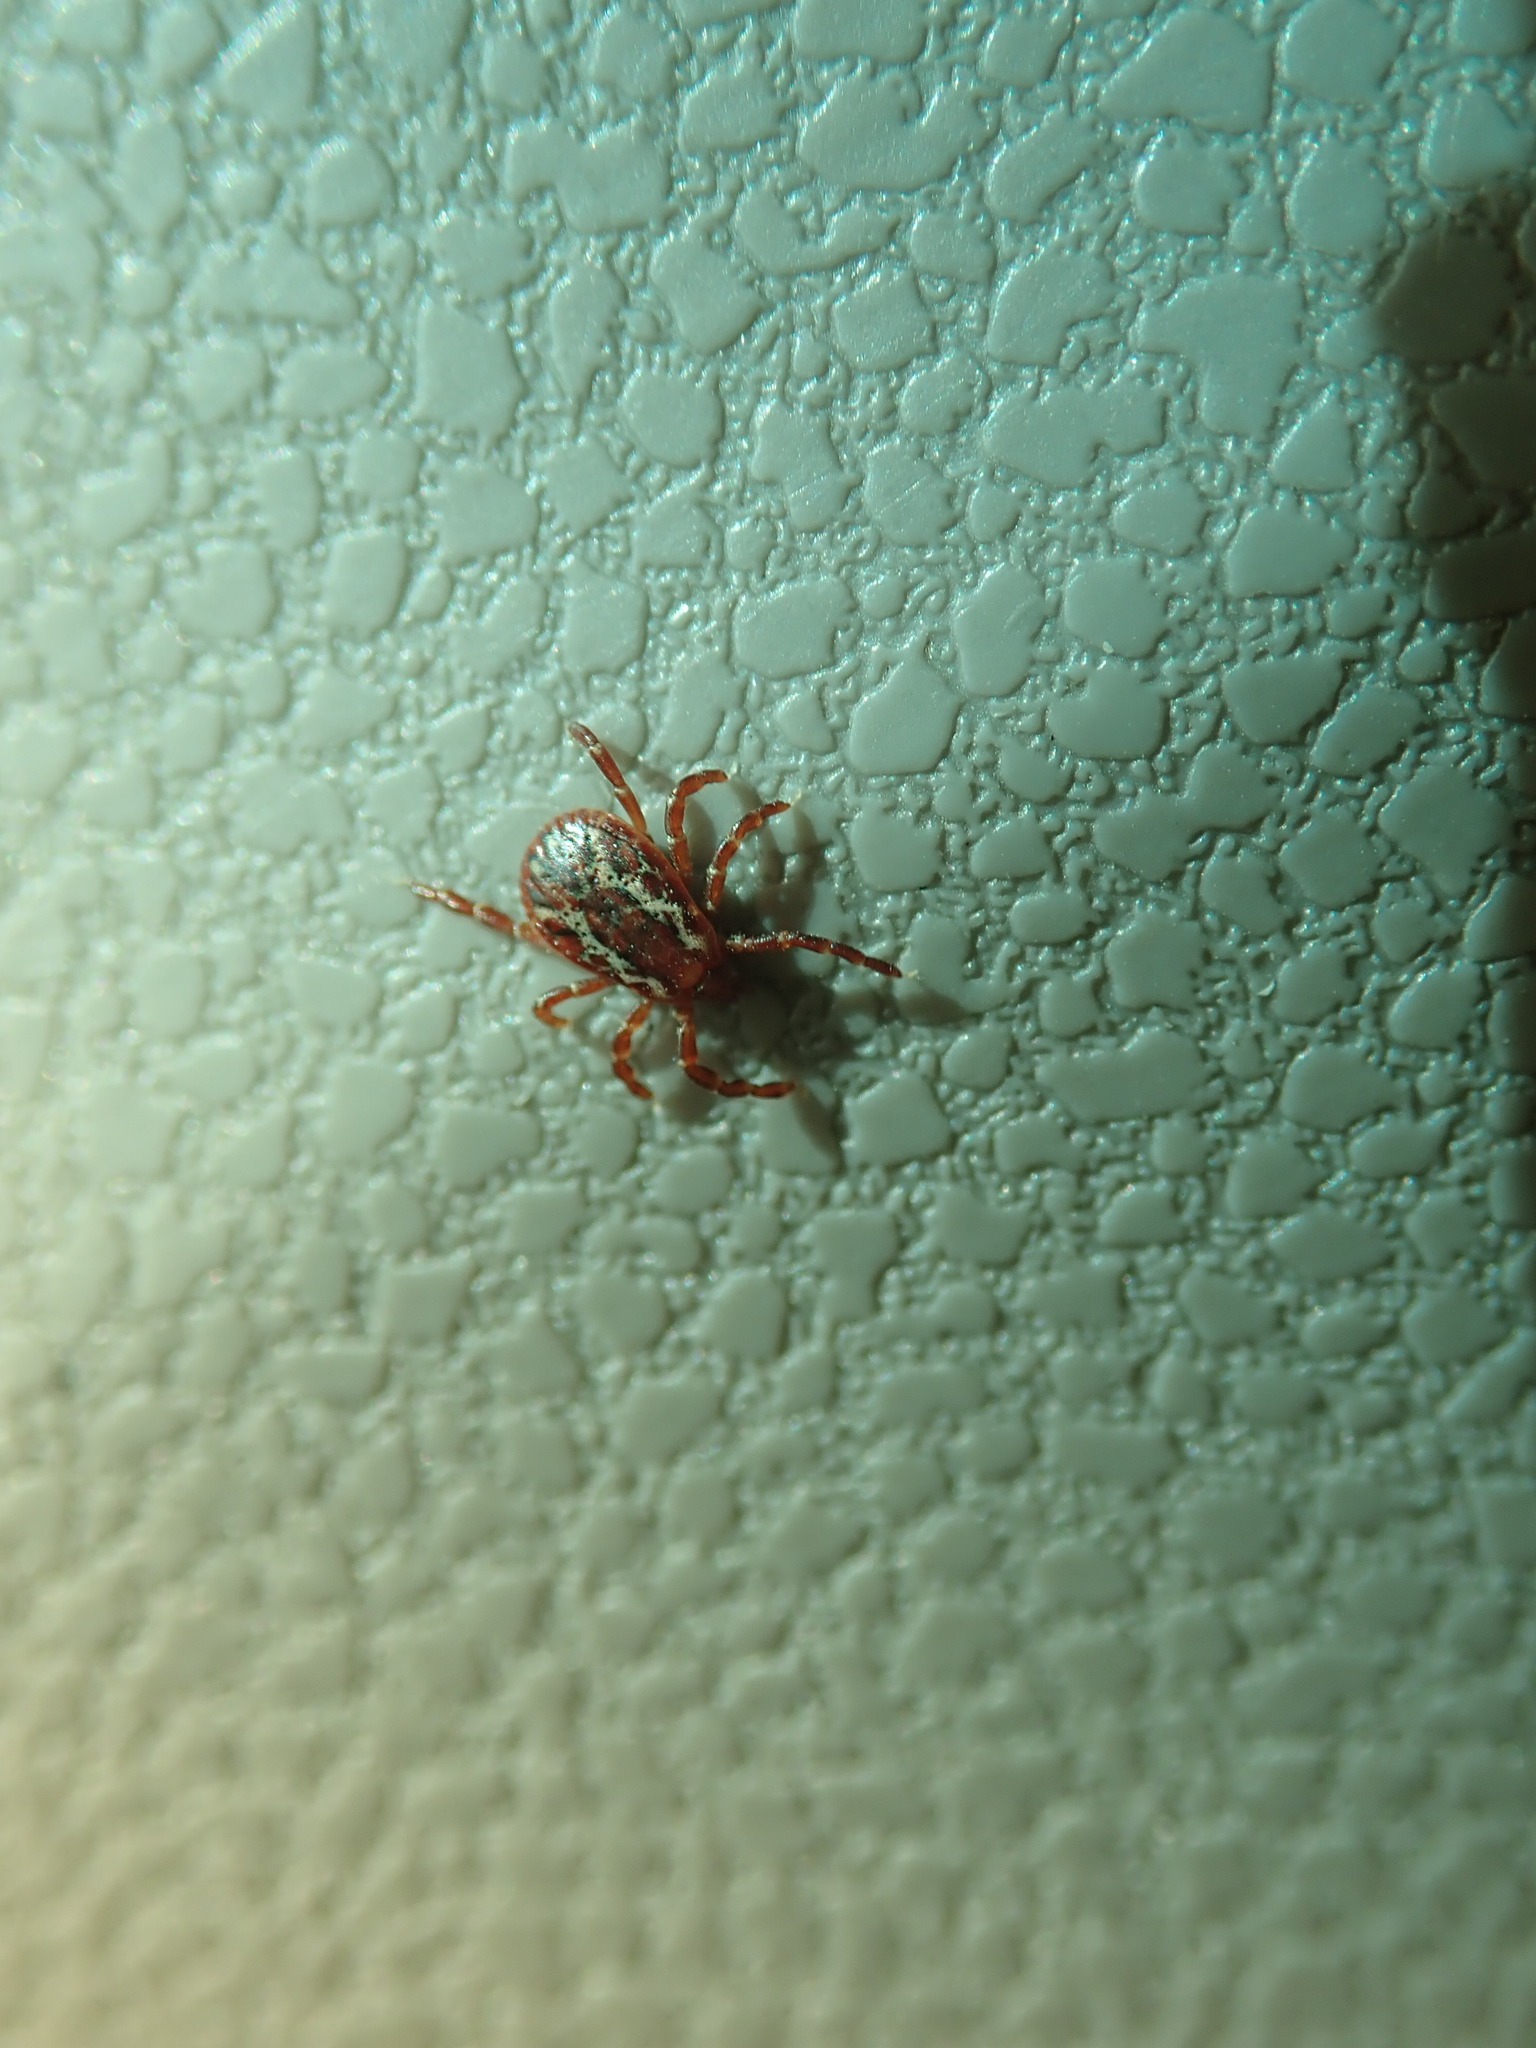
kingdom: Animalia
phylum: Arthropoda
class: Arachnida
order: Ixodida
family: Ixodidae
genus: Dermacentor
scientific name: Dermacentor variabilis
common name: American dog tick
